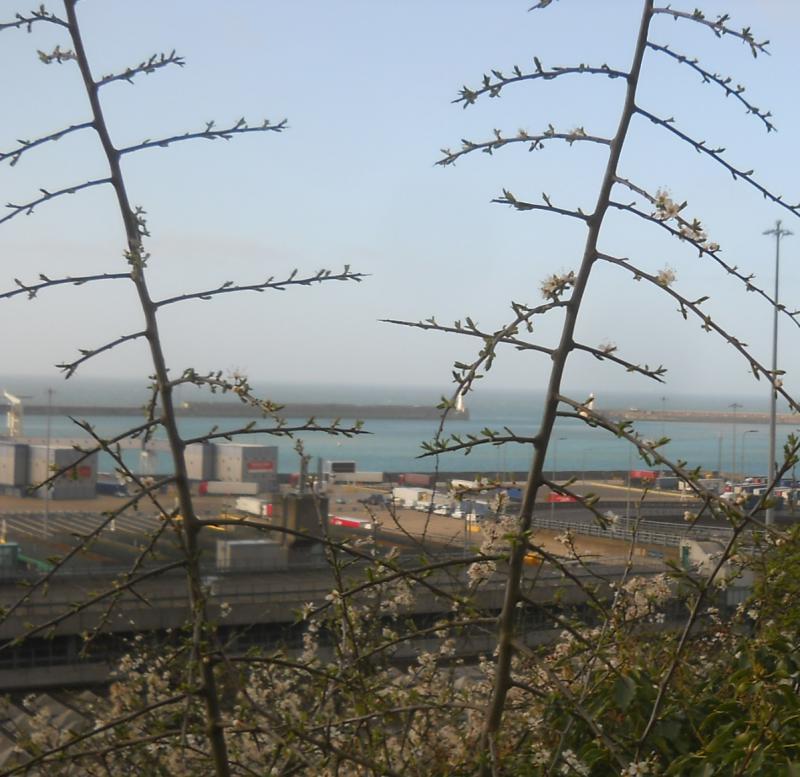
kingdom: Plantae
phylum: Tracheophyta
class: Magnoliopsida
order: Rosales
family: Rosaceae
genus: Prunus
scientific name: Prunus spinosa
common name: Blackthorn
